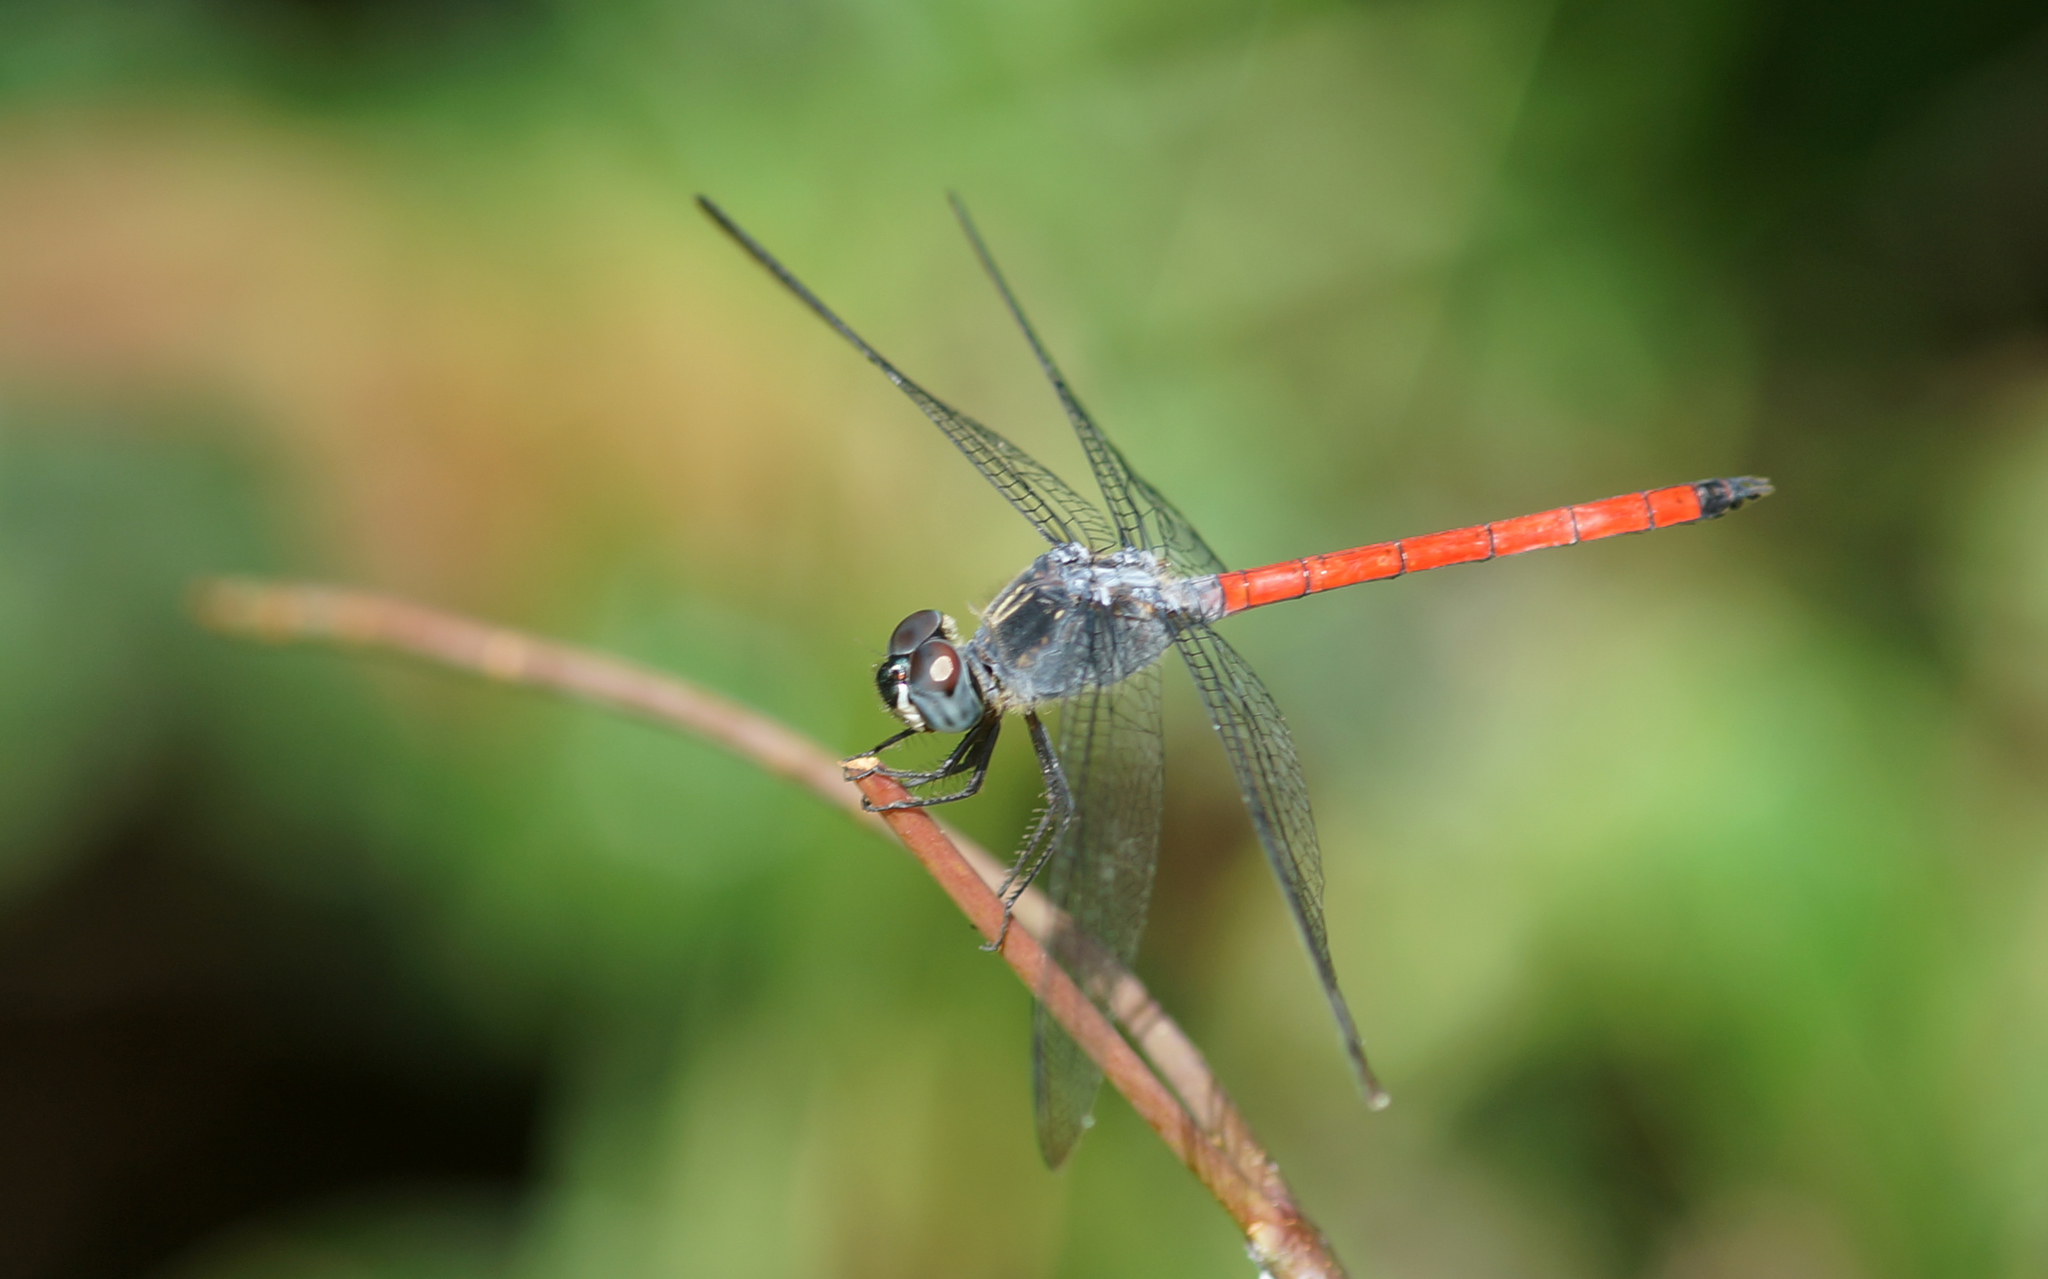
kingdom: Animalia
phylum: Arthropoda
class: Insecta
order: Odonata
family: Libellulidae
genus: Lathrecista
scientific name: Lathrecista asiatica
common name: Scarlet grenadier
